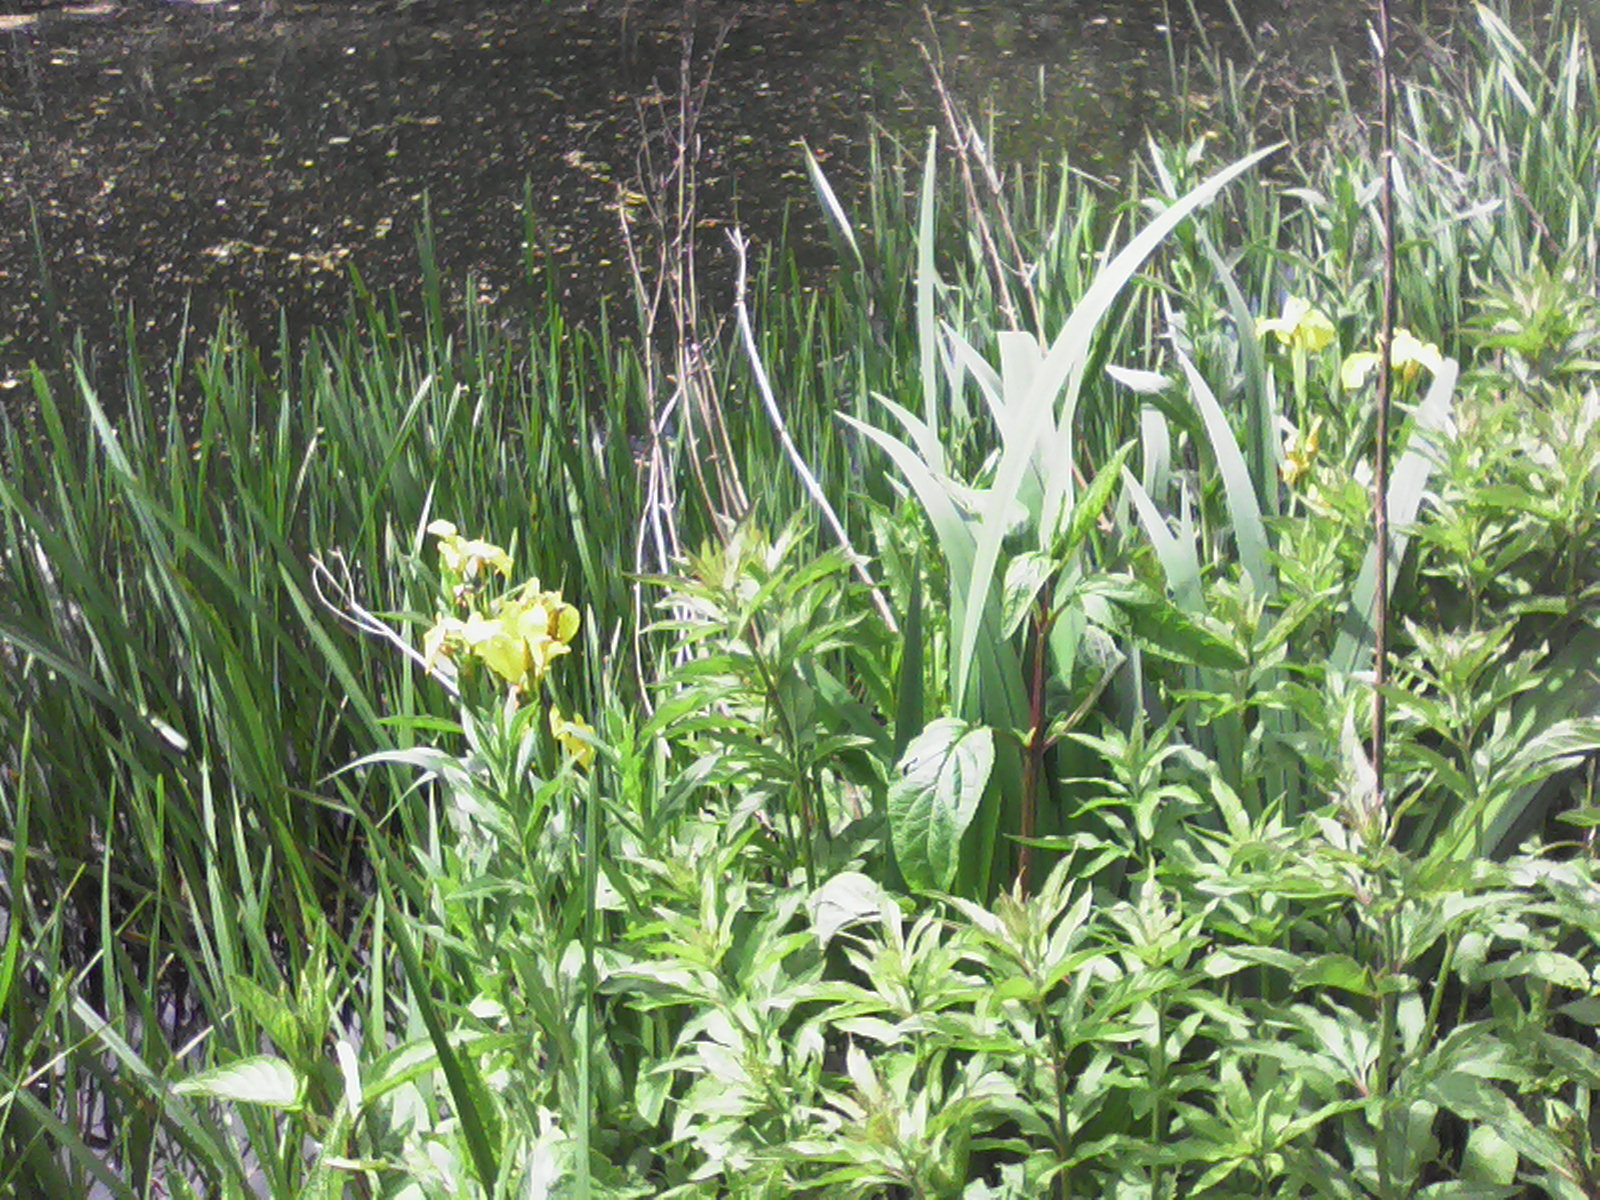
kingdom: Plantae
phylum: Tracheophyta
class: Liliopsida
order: Asparagales
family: Iridaceae
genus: Iris
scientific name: Iris pseudacorus
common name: Yellow flag
